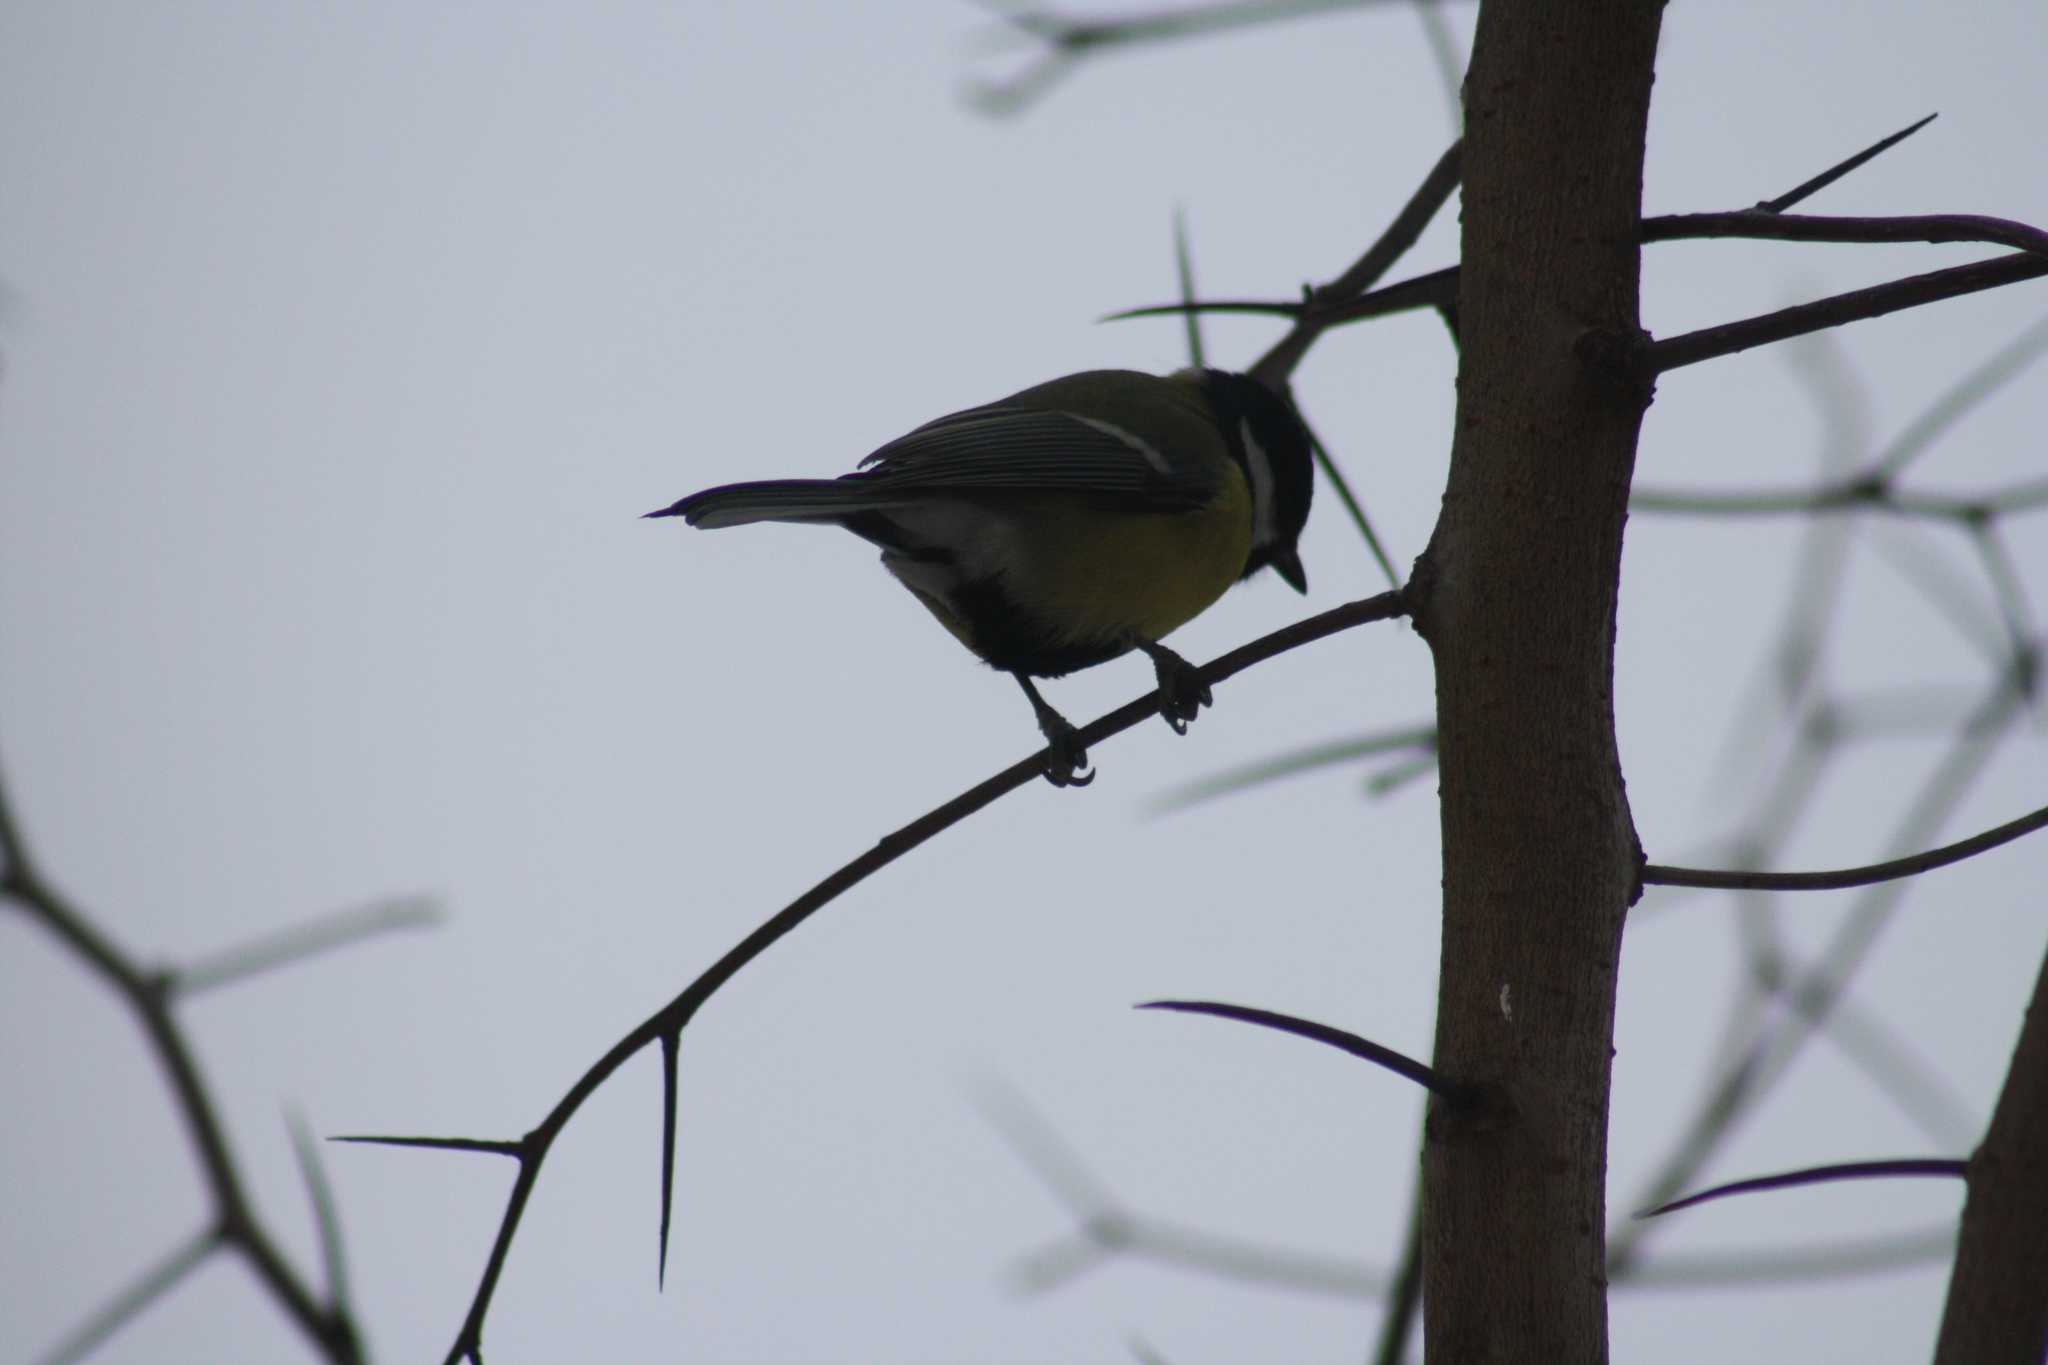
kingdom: Animalia
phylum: Chordata
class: Aves
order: Passeriformes
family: Paridae
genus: Parus
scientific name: Parus major
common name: Great tit
